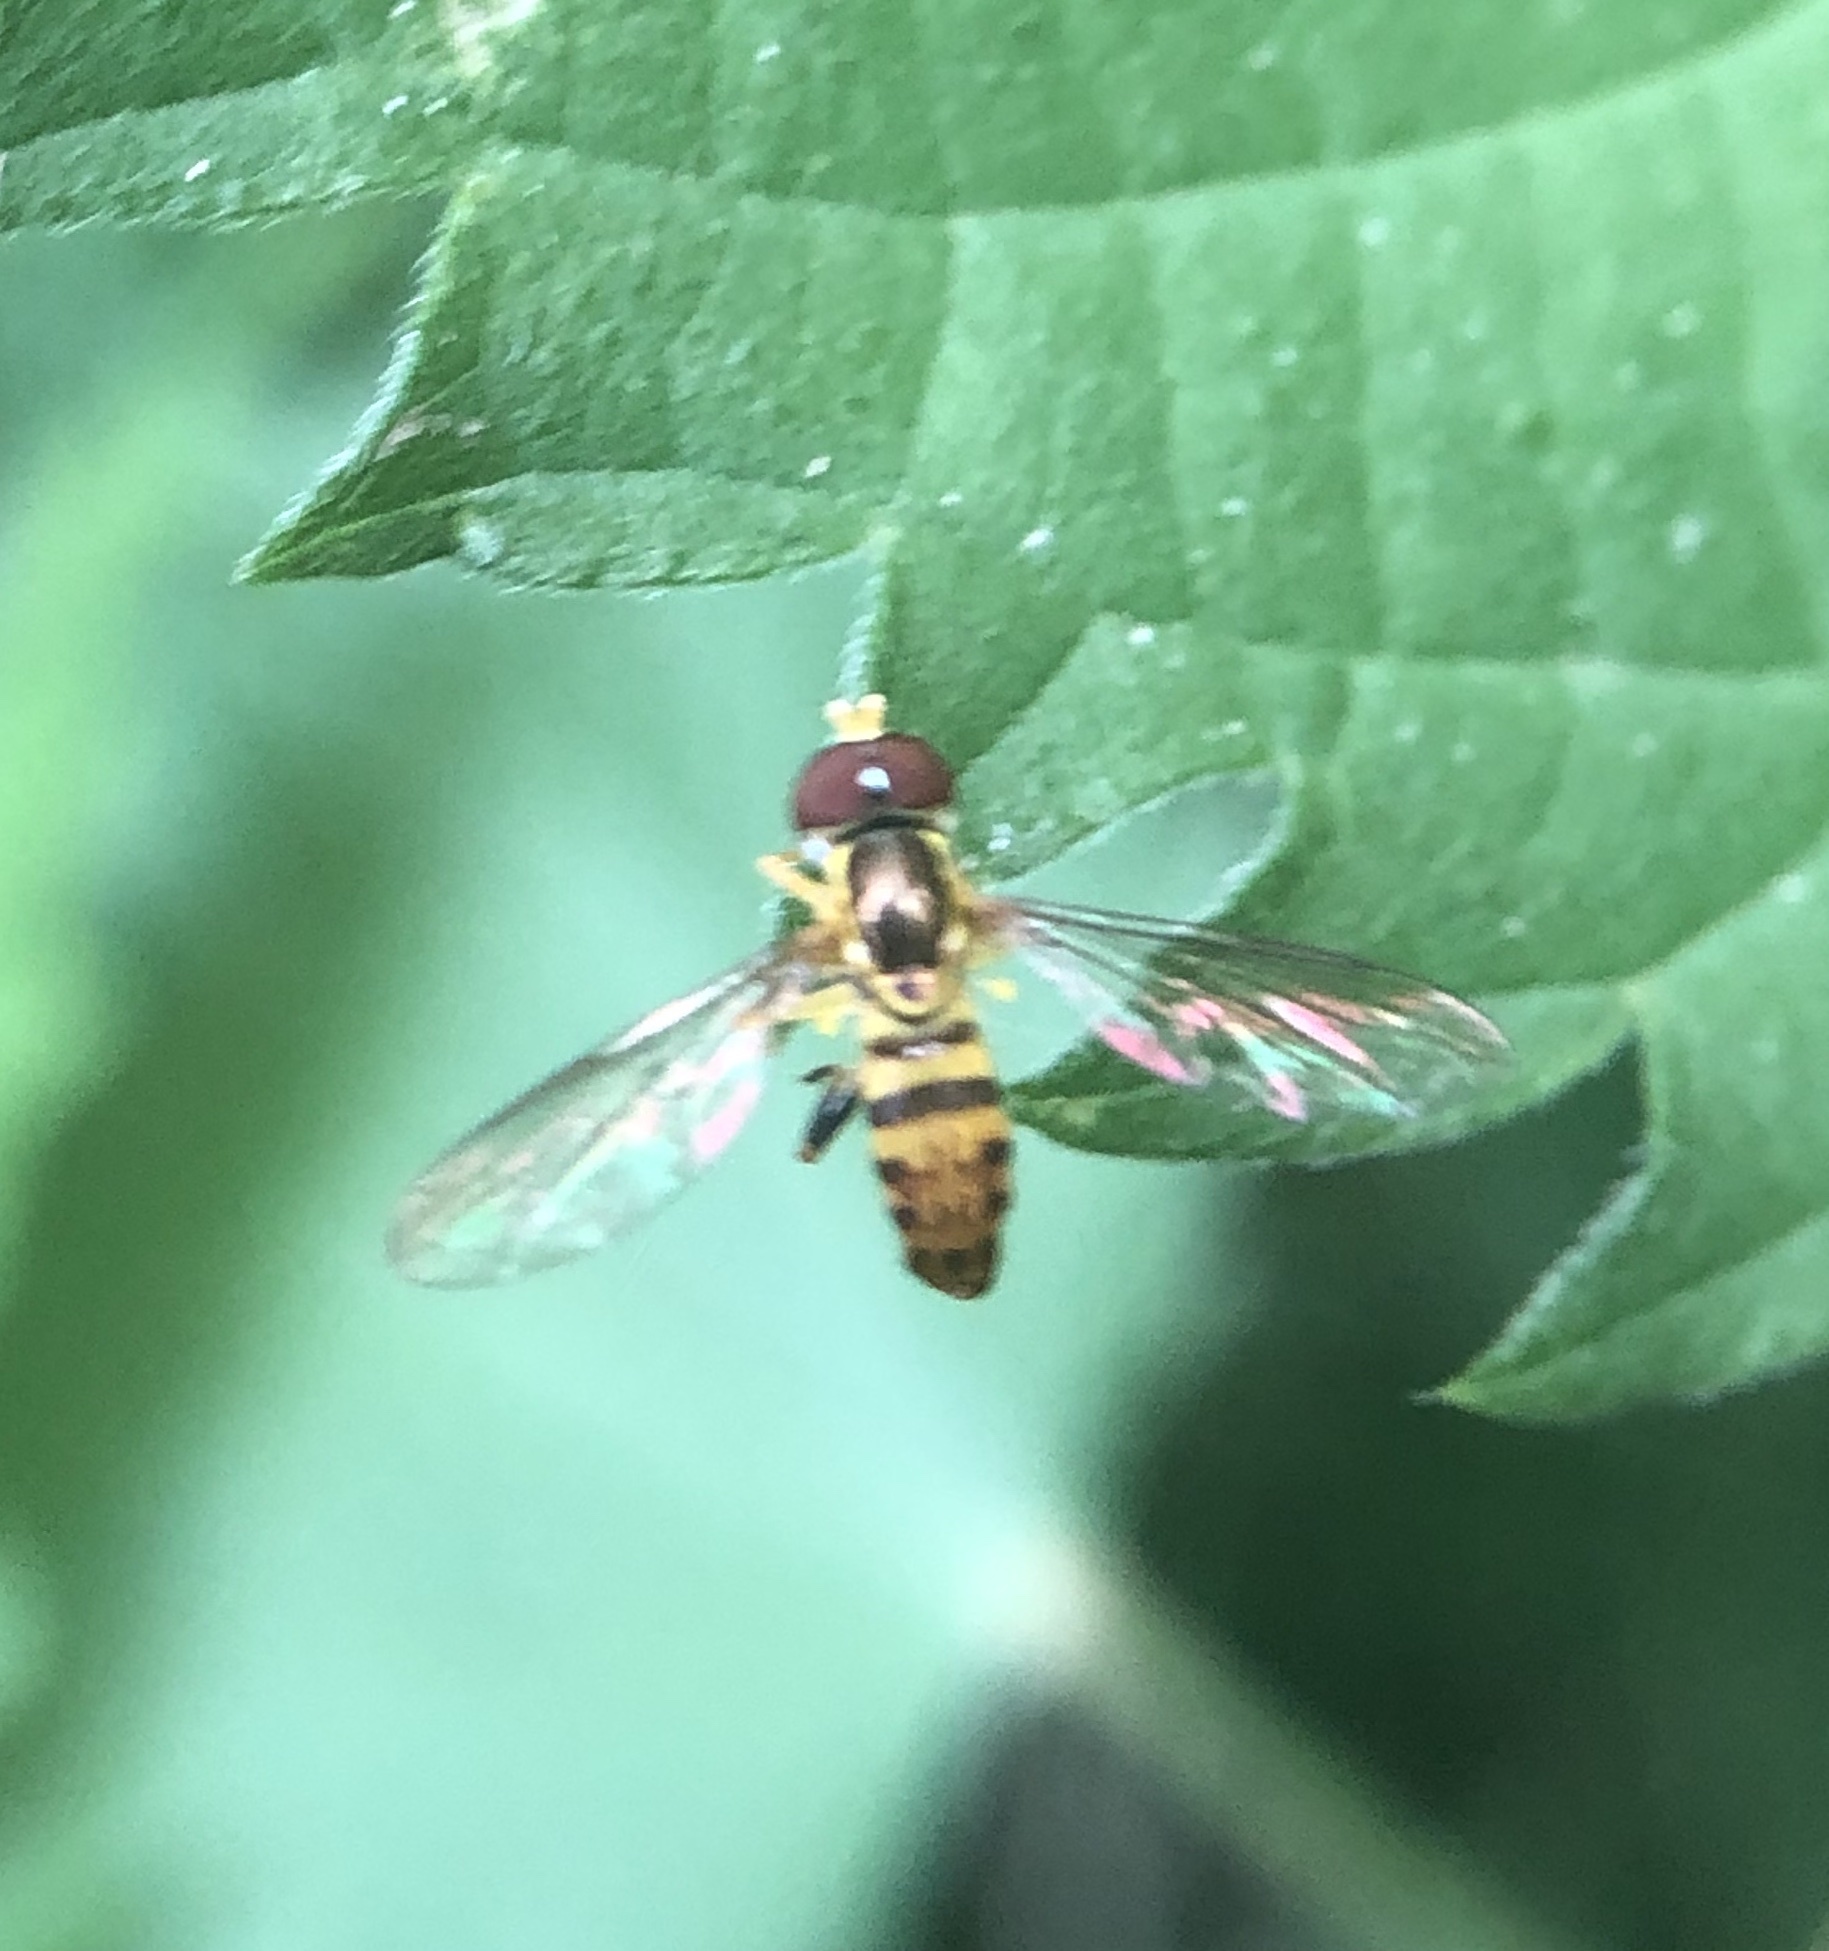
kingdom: Animalia
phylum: Arthropoda
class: Insecta
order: Diptera
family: Syrphidae
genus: Toxomerus
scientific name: Toxomerus geminatus
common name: Eastern calligrapher
